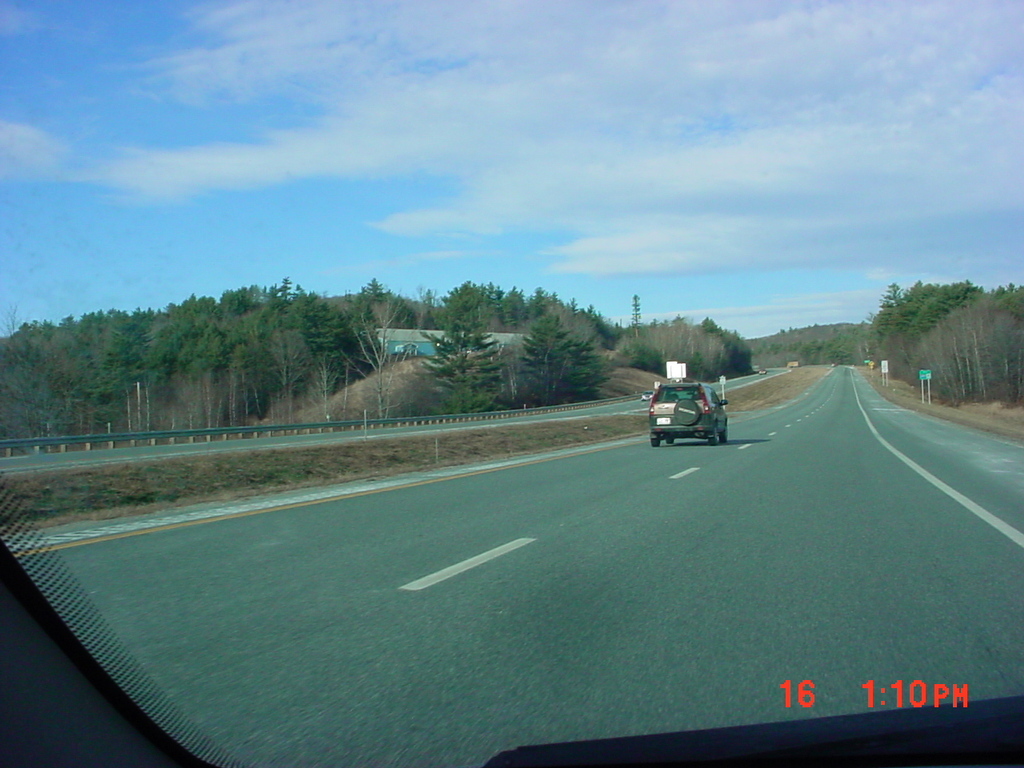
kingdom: Plantae
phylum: Tracheophyta
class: Pinopsida
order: Pinales
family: Pinaceae
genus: Pinus
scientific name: Pinus strobus
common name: Weymouth pine
